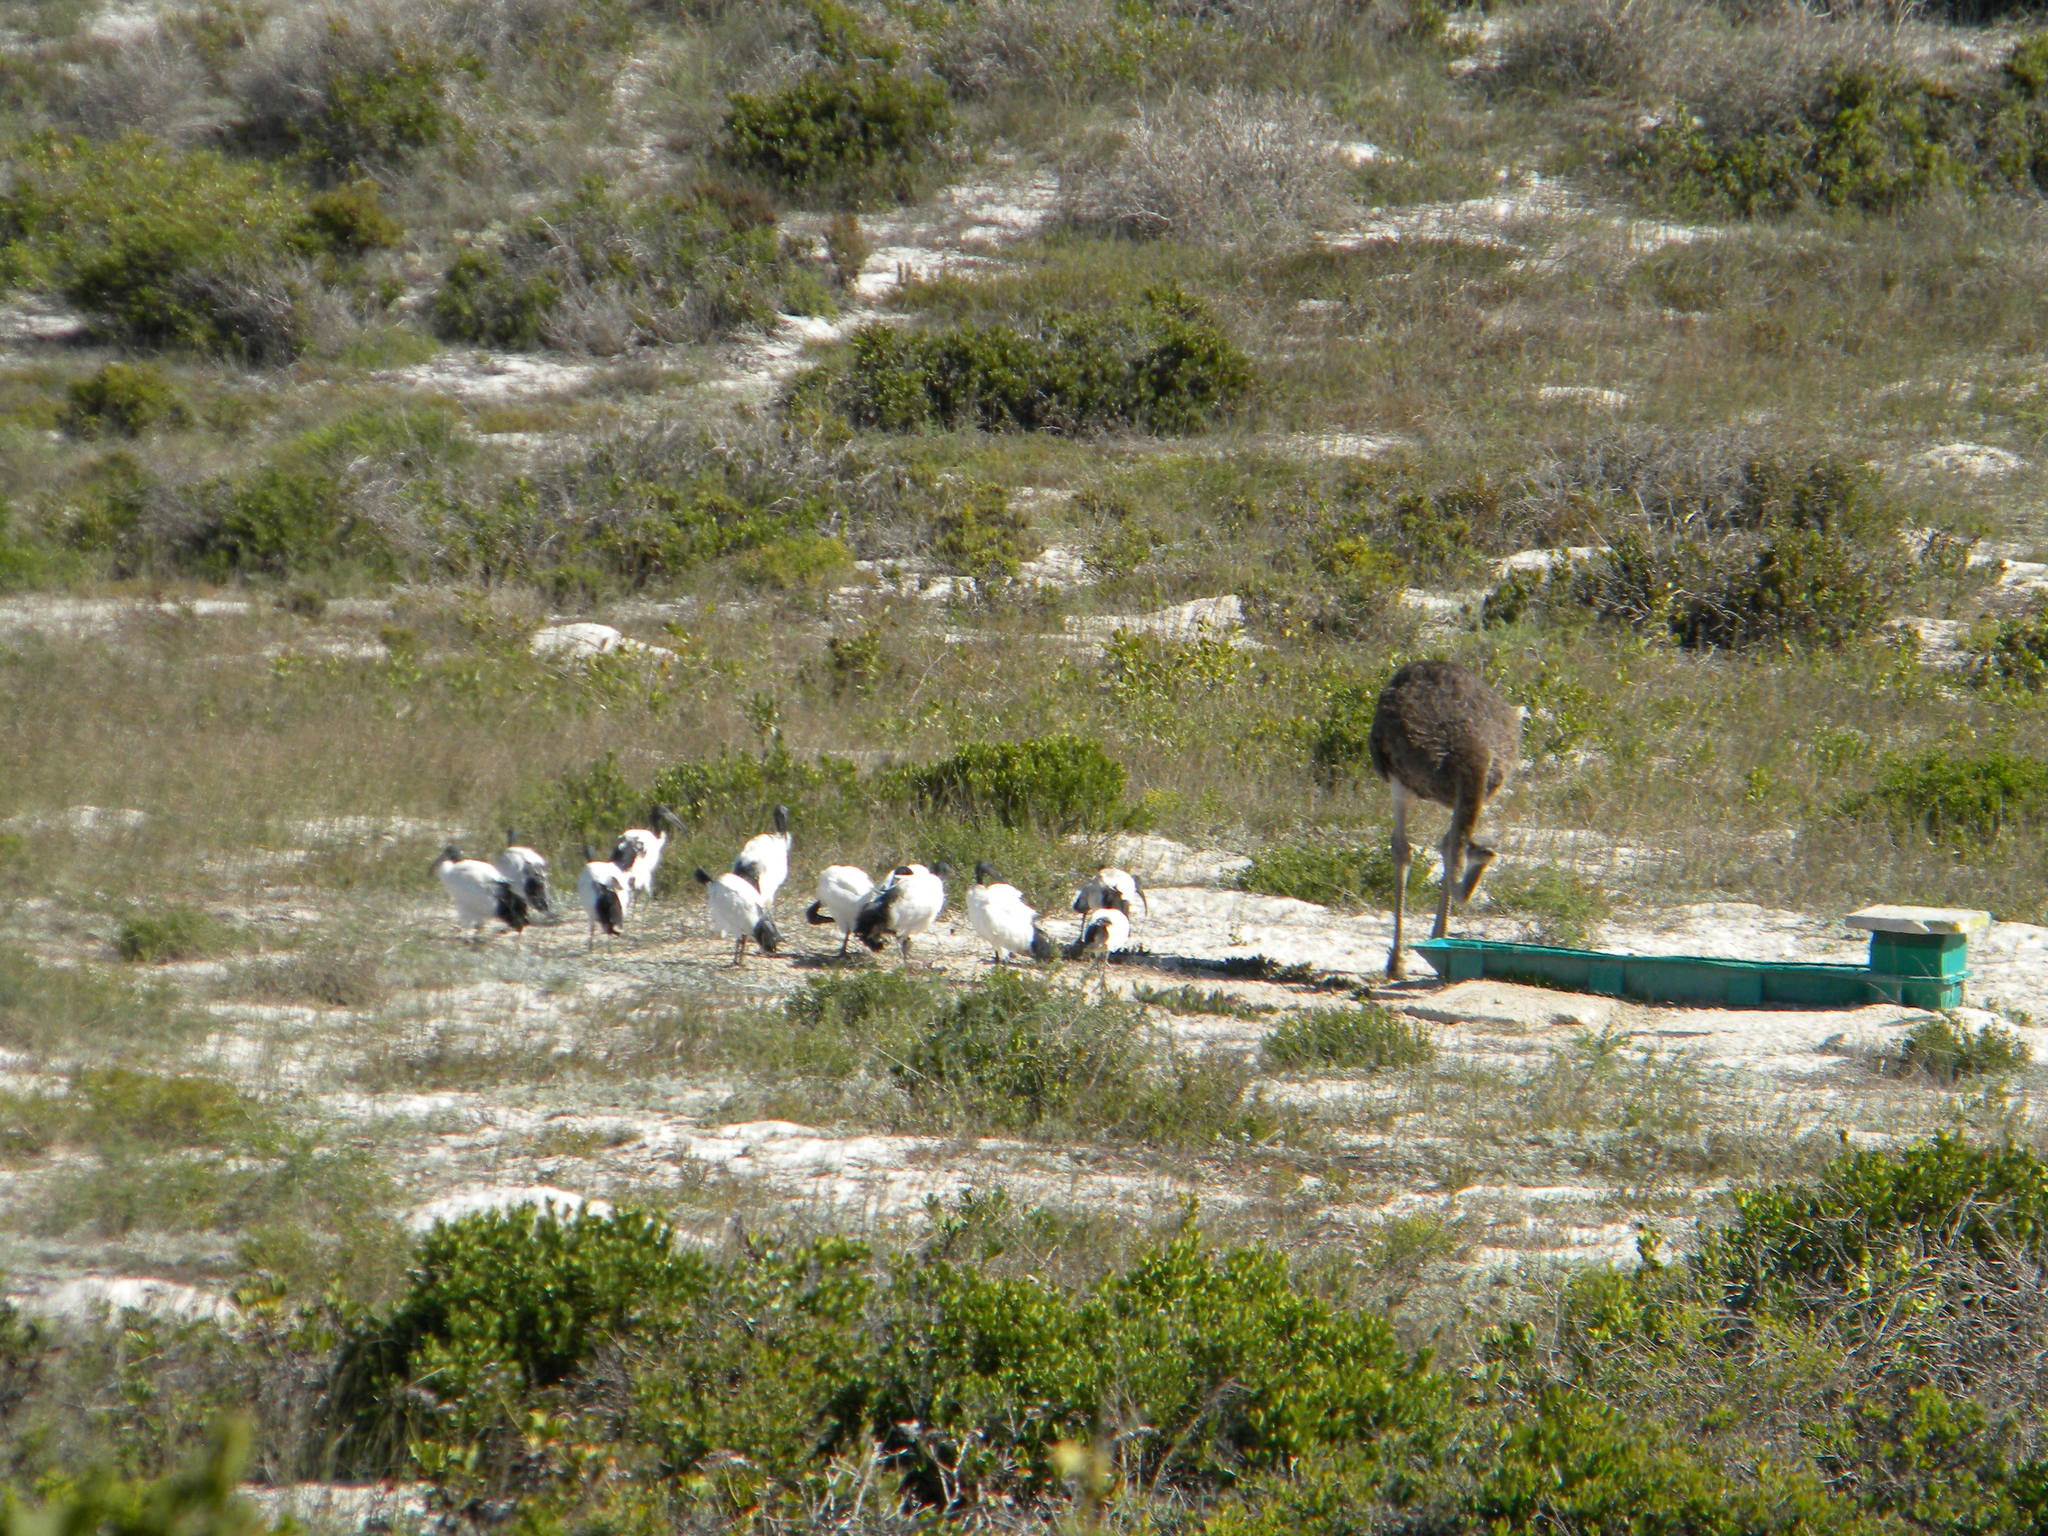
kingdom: Animalia
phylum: Chordata
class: Aves
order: Struthioniformes
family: Struthionidae
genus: Struthio
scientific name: Struthio camelus
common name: Common ostrich
